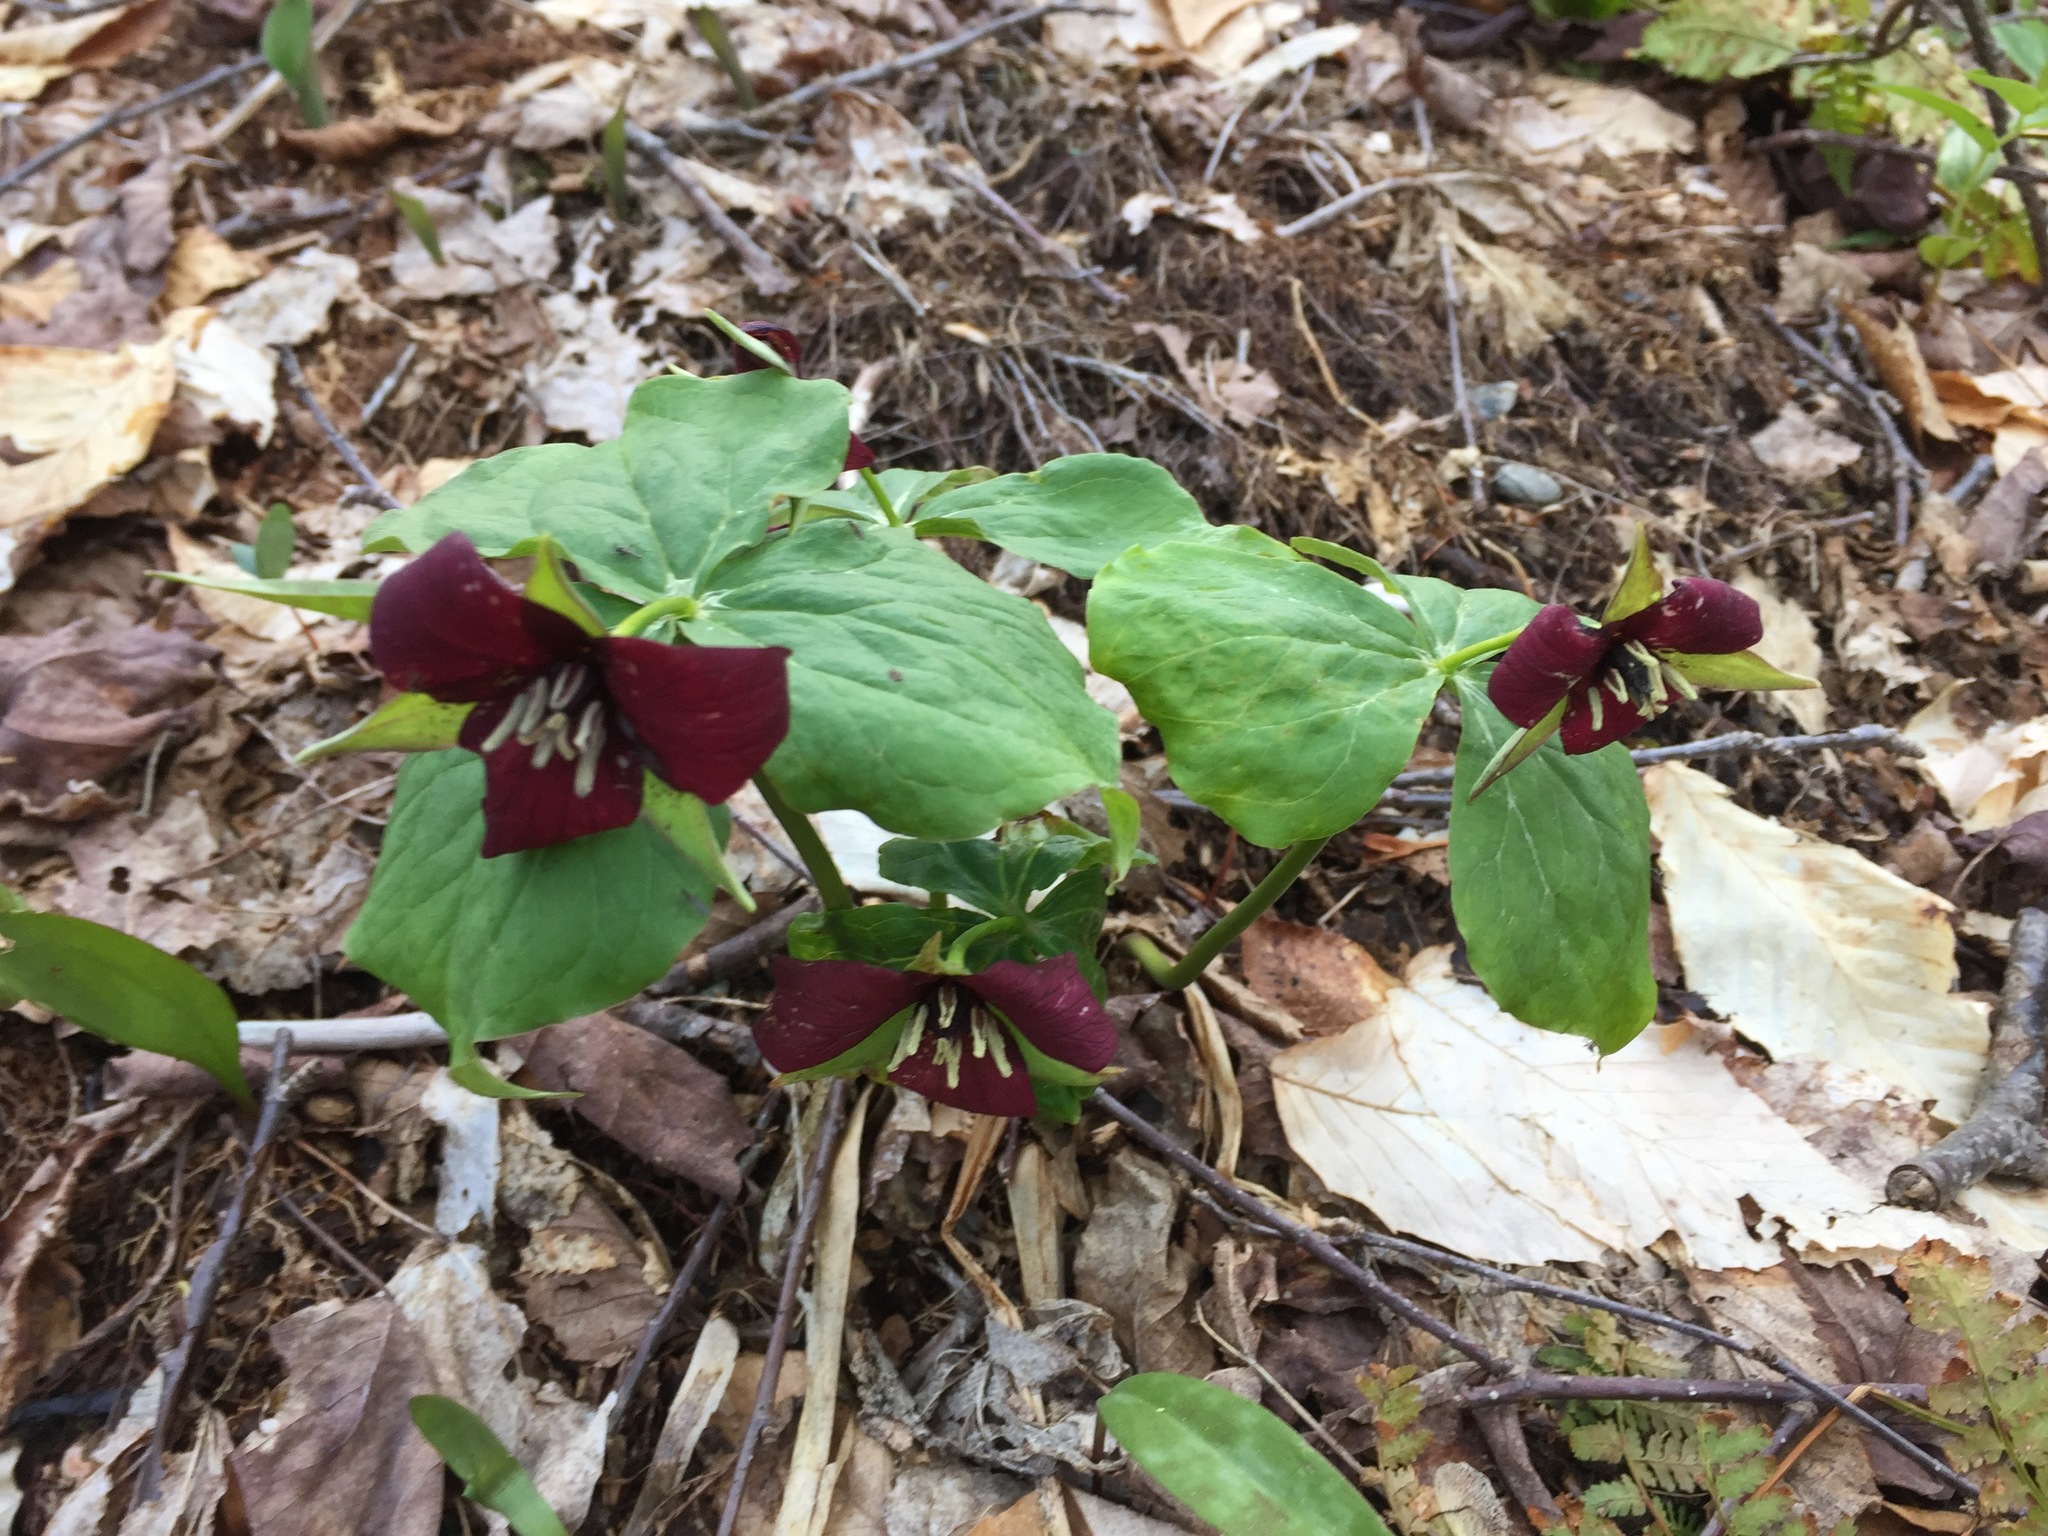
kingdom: Plantae
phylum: Tracheophyta
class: Liliopsida
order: Liliales
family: Melanthiaceae
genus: Trillium
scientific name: Trillium erectum
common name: Purple trillium
